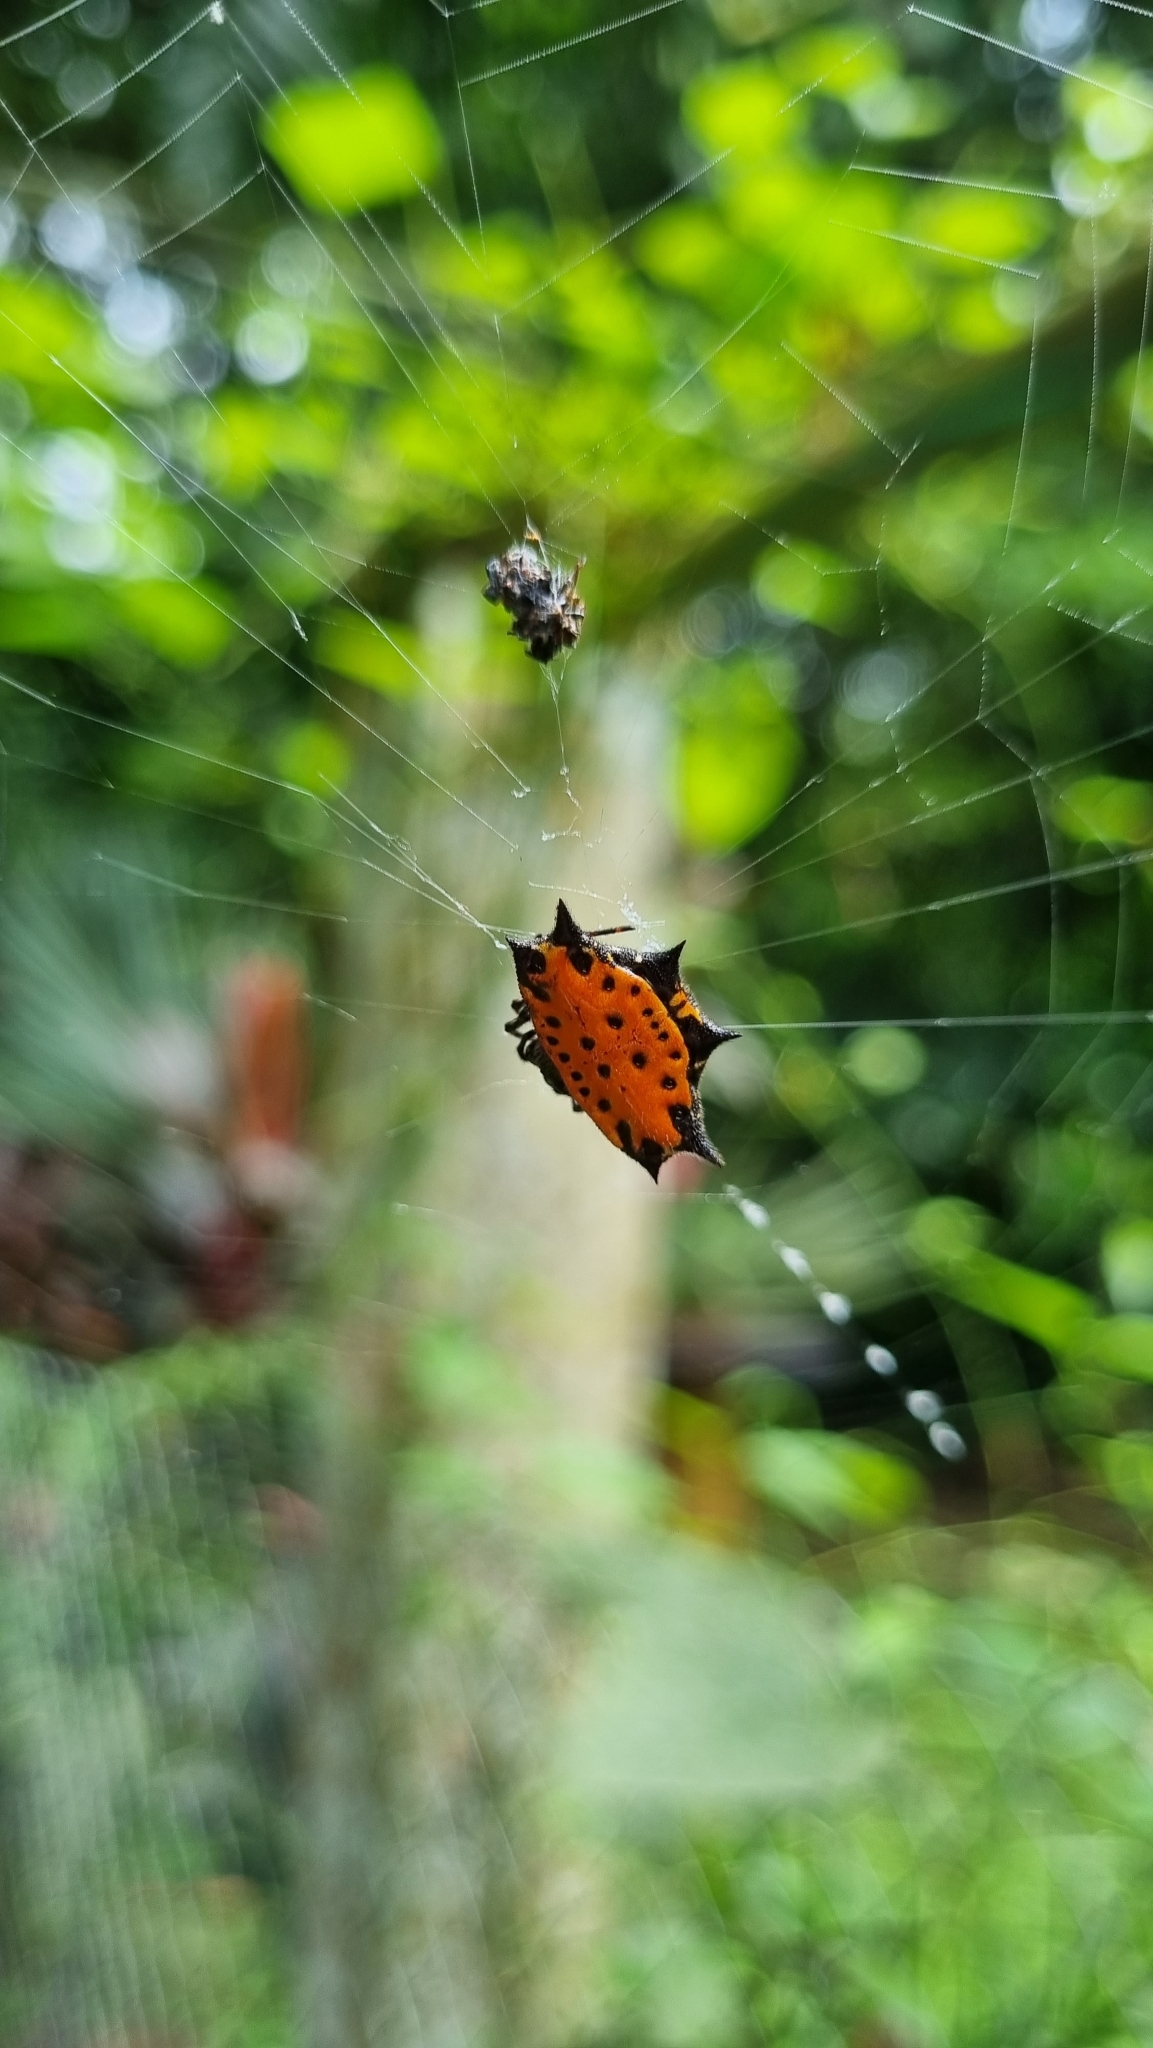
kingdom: Animalia
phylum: Arthropoda
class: Arachnida
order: Araneae
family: Araneidae
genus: Gasteracantha
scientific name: Gasteracantha cancriformis
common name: Orb weavers
